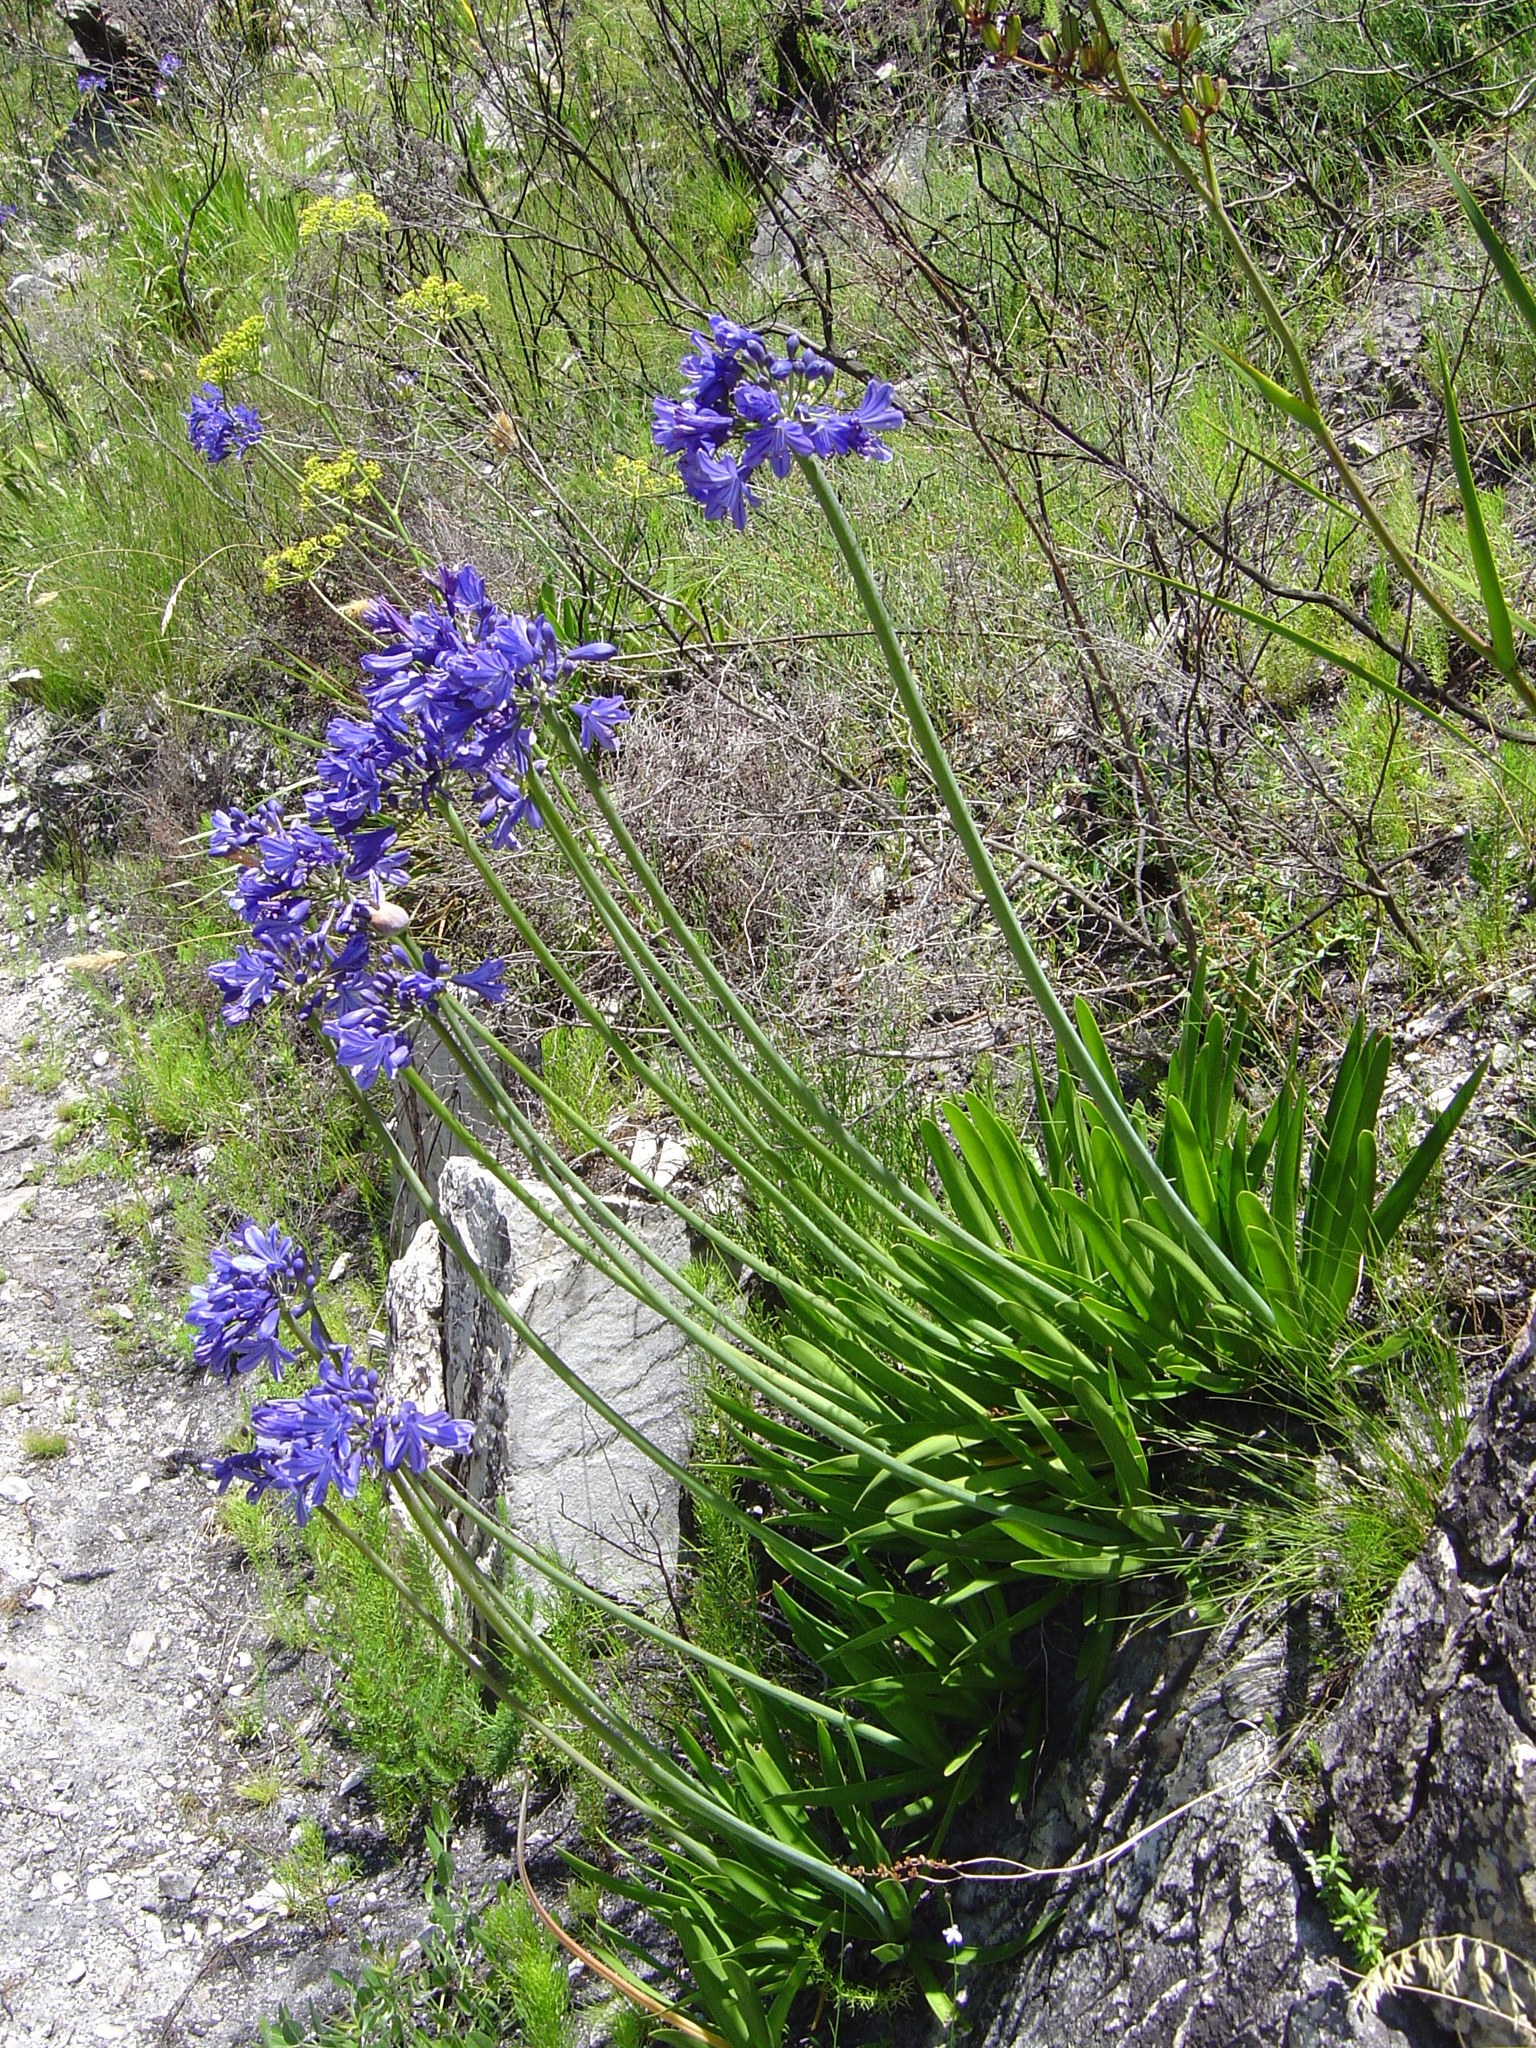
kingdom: Plantae
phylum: Tracheophyta
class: Liliopsida
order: Asparagales
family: Amaryllidaceae
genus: Agapanthus
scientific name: Agapanthus africanus
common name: Lily-of-the-nile
